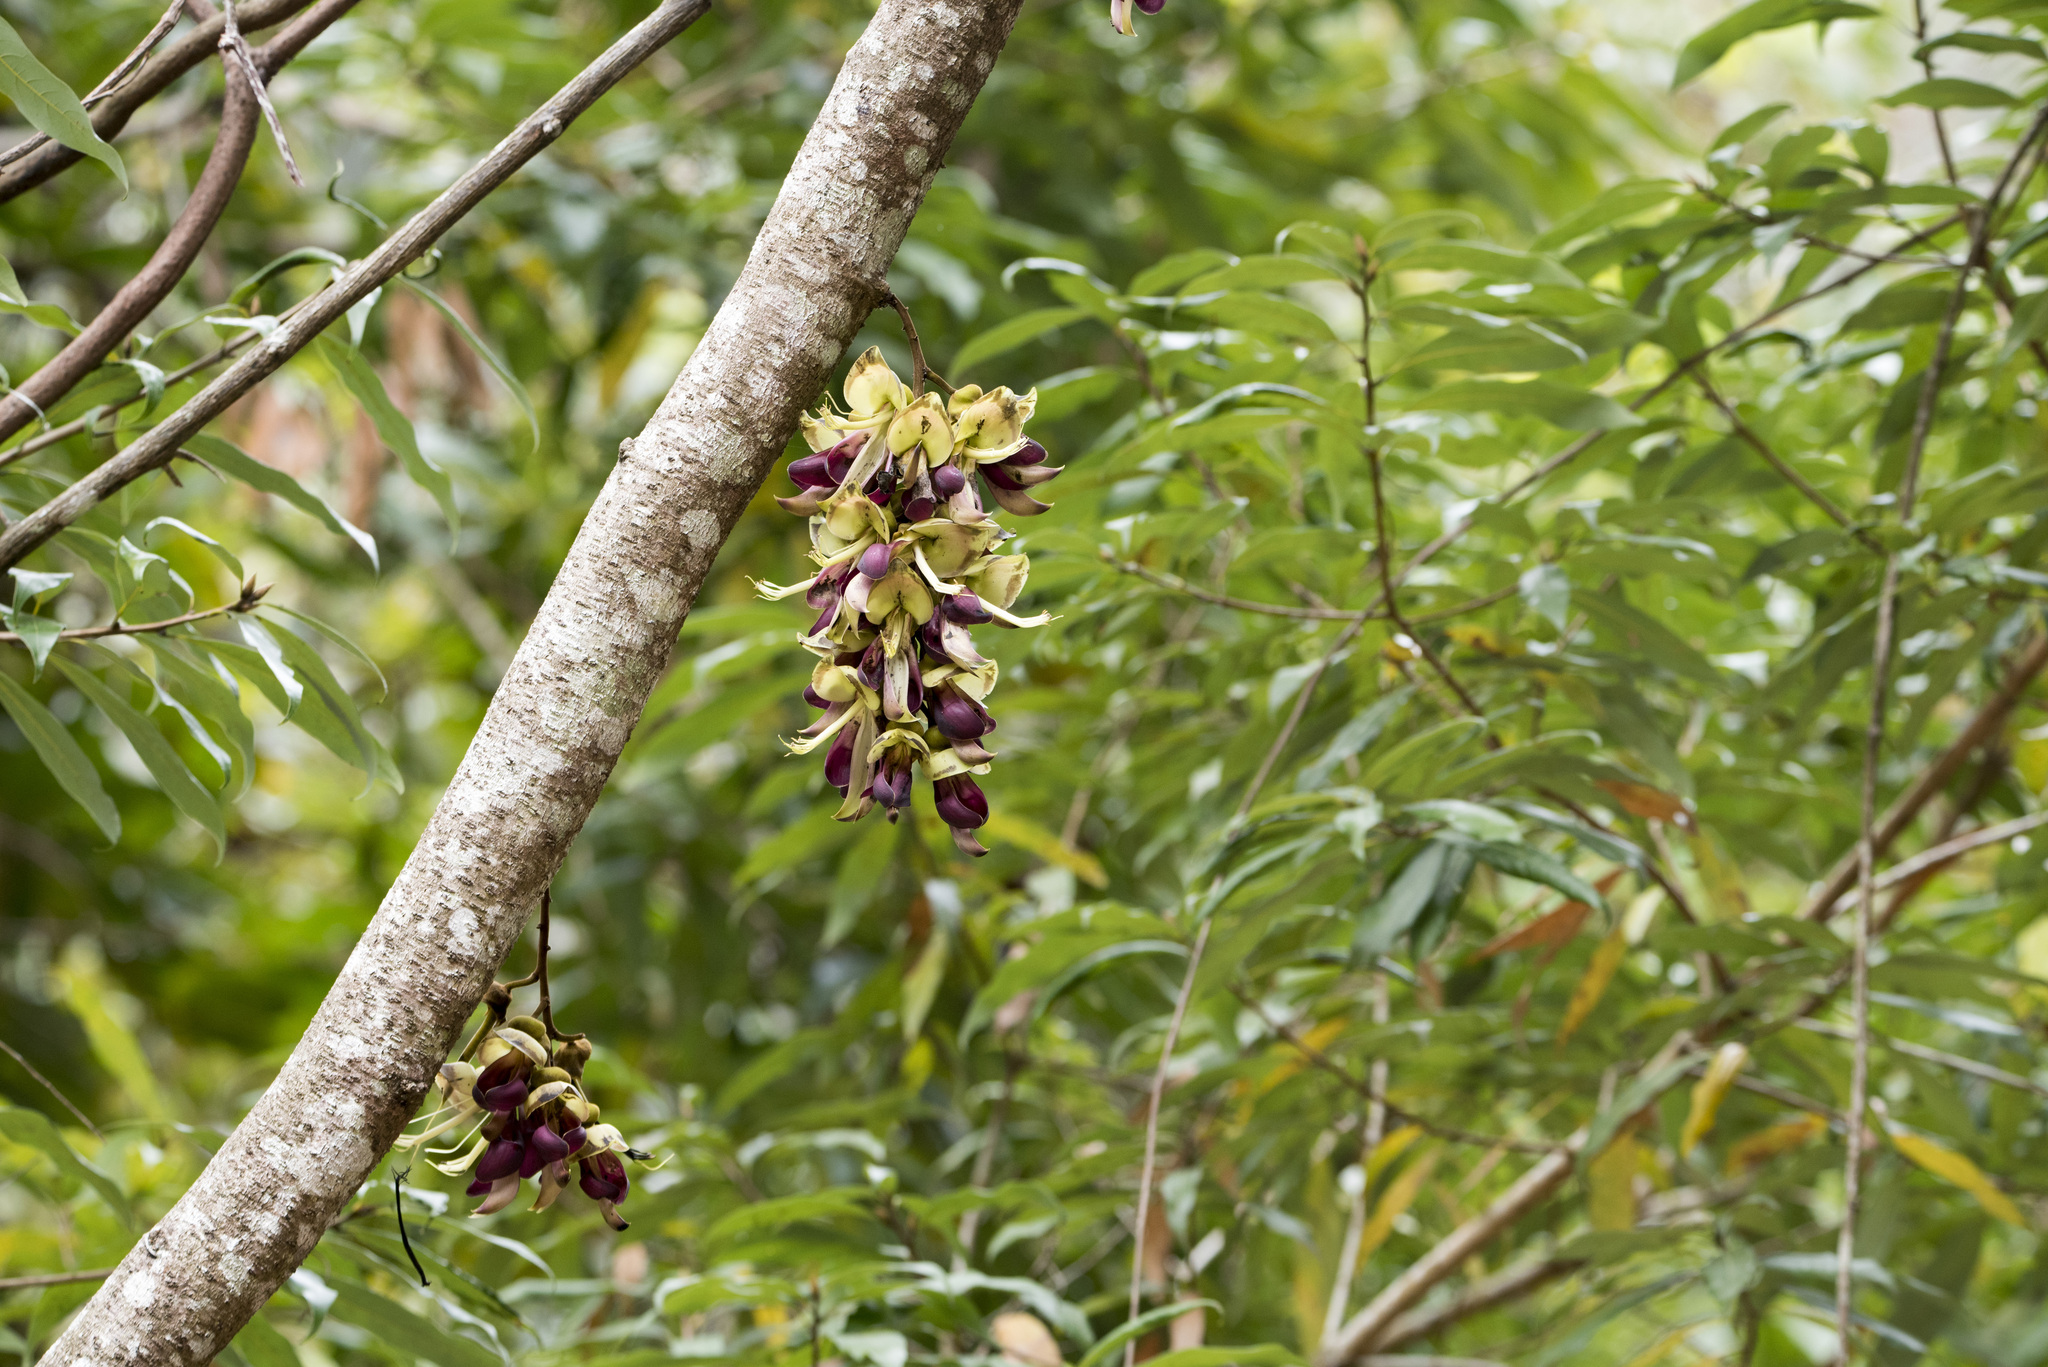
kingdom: Plantae
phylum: Tracheophyta
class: Magnoliopsida
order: Fabales
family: Fabaceae
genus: Mucuna
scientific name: Mucuna macrocarpa
